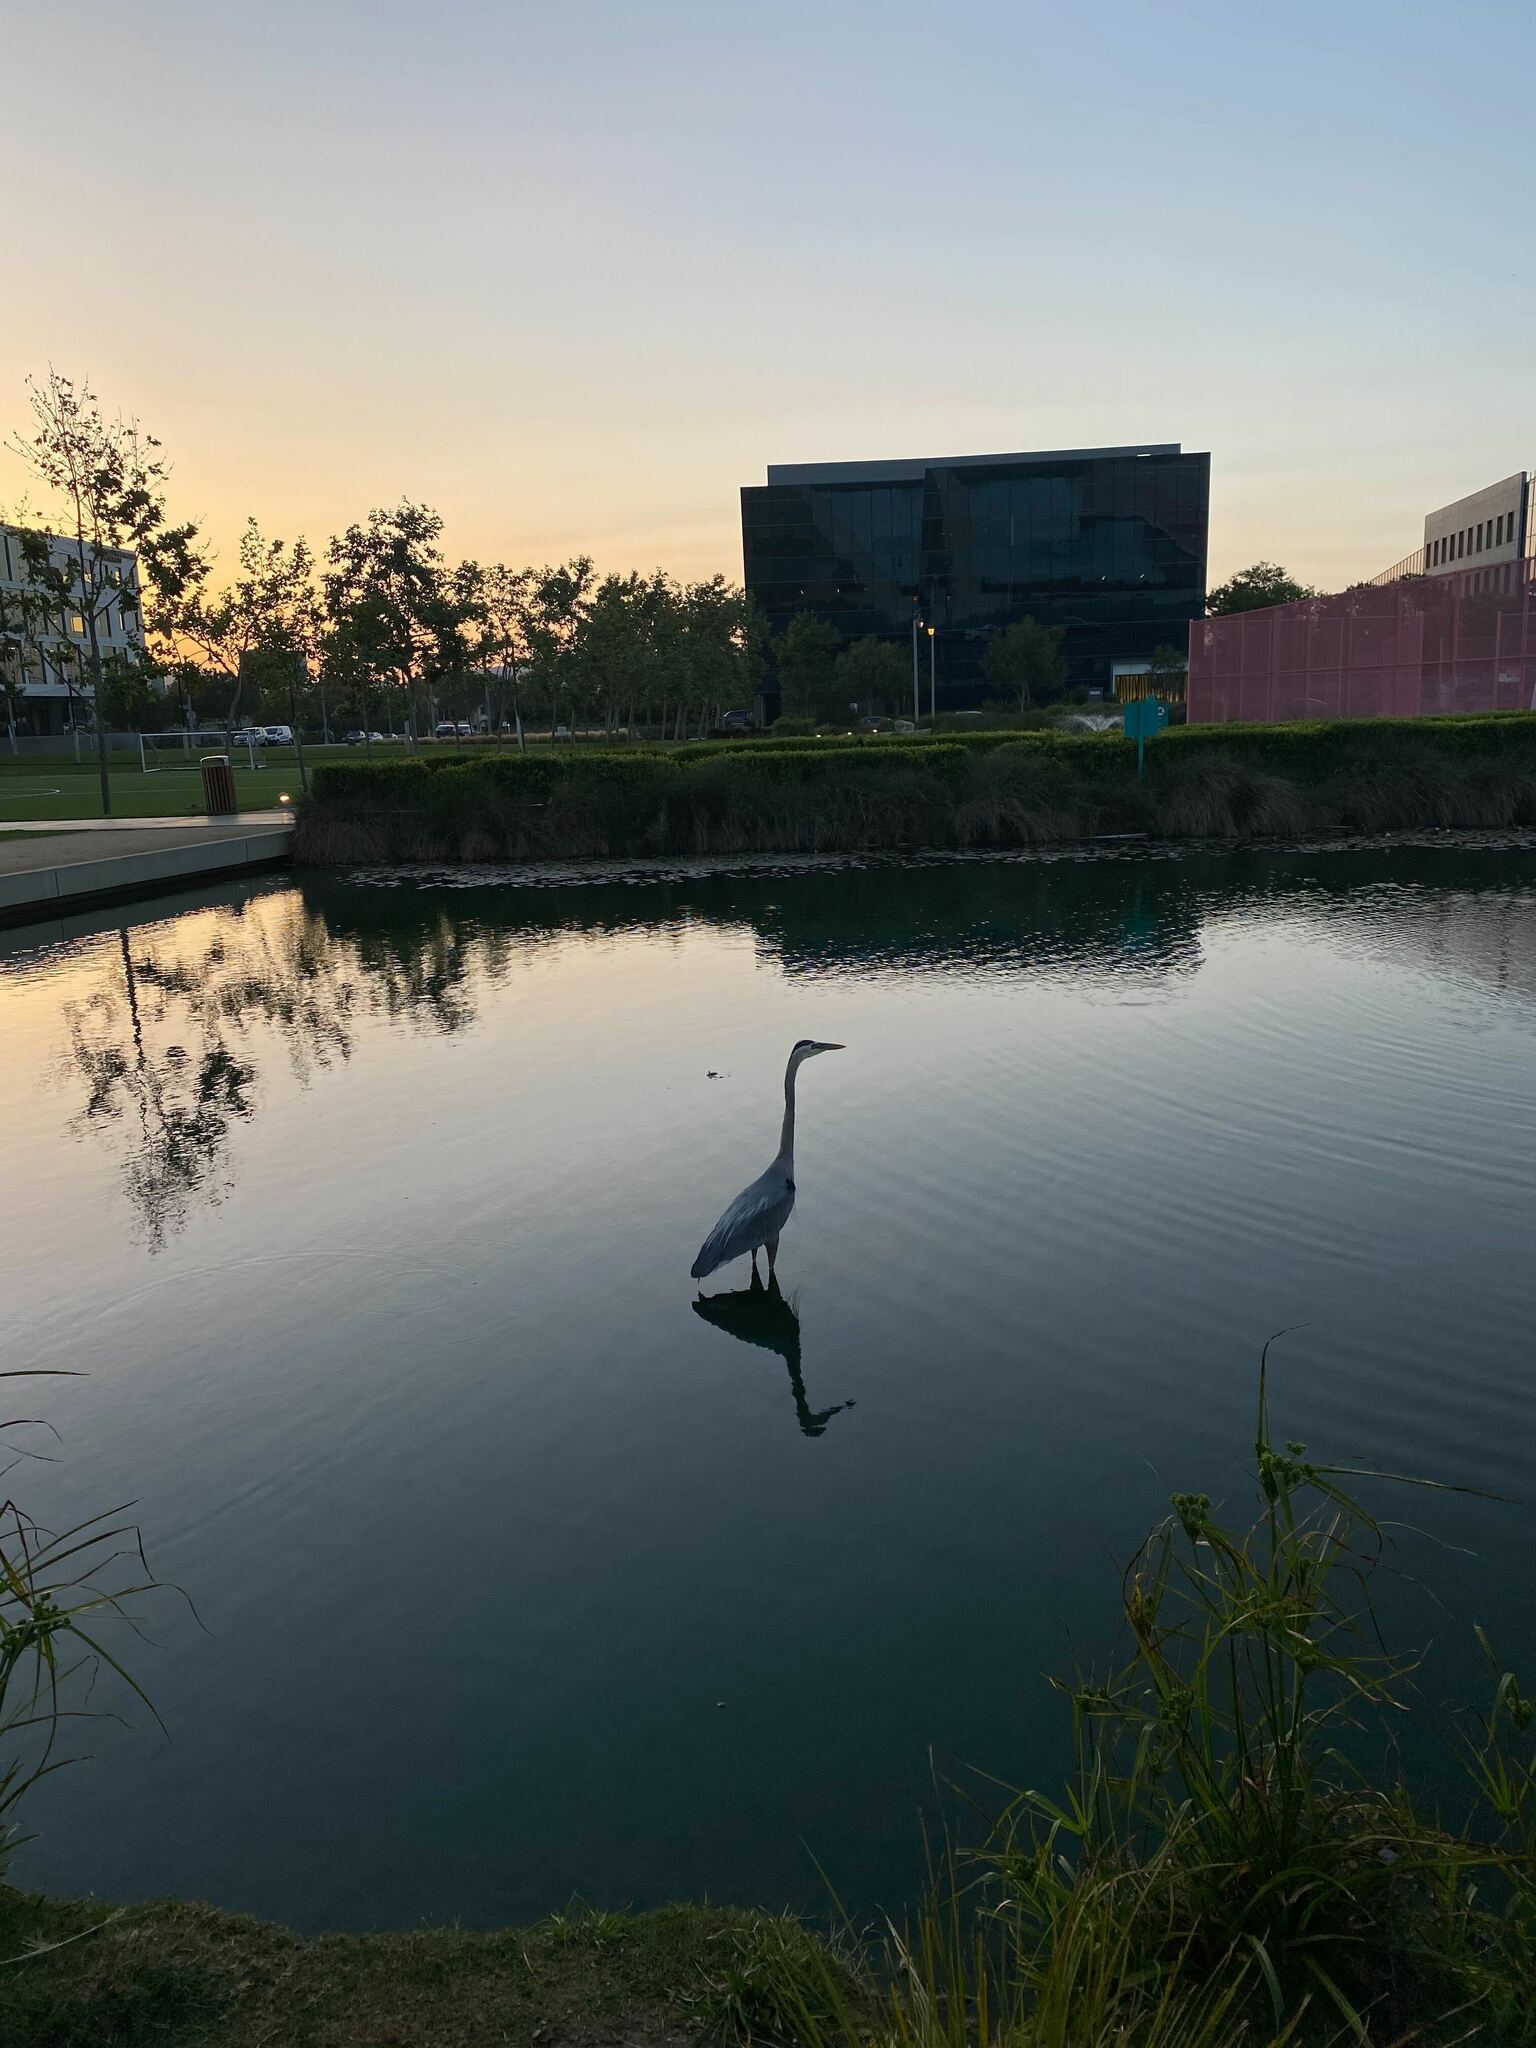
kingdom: Animalia
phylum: Chordata
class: Aves
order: Pelecaniformes
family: Ardeidae
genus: Ardea
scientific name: Ardea herodias
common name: Great blue heron
